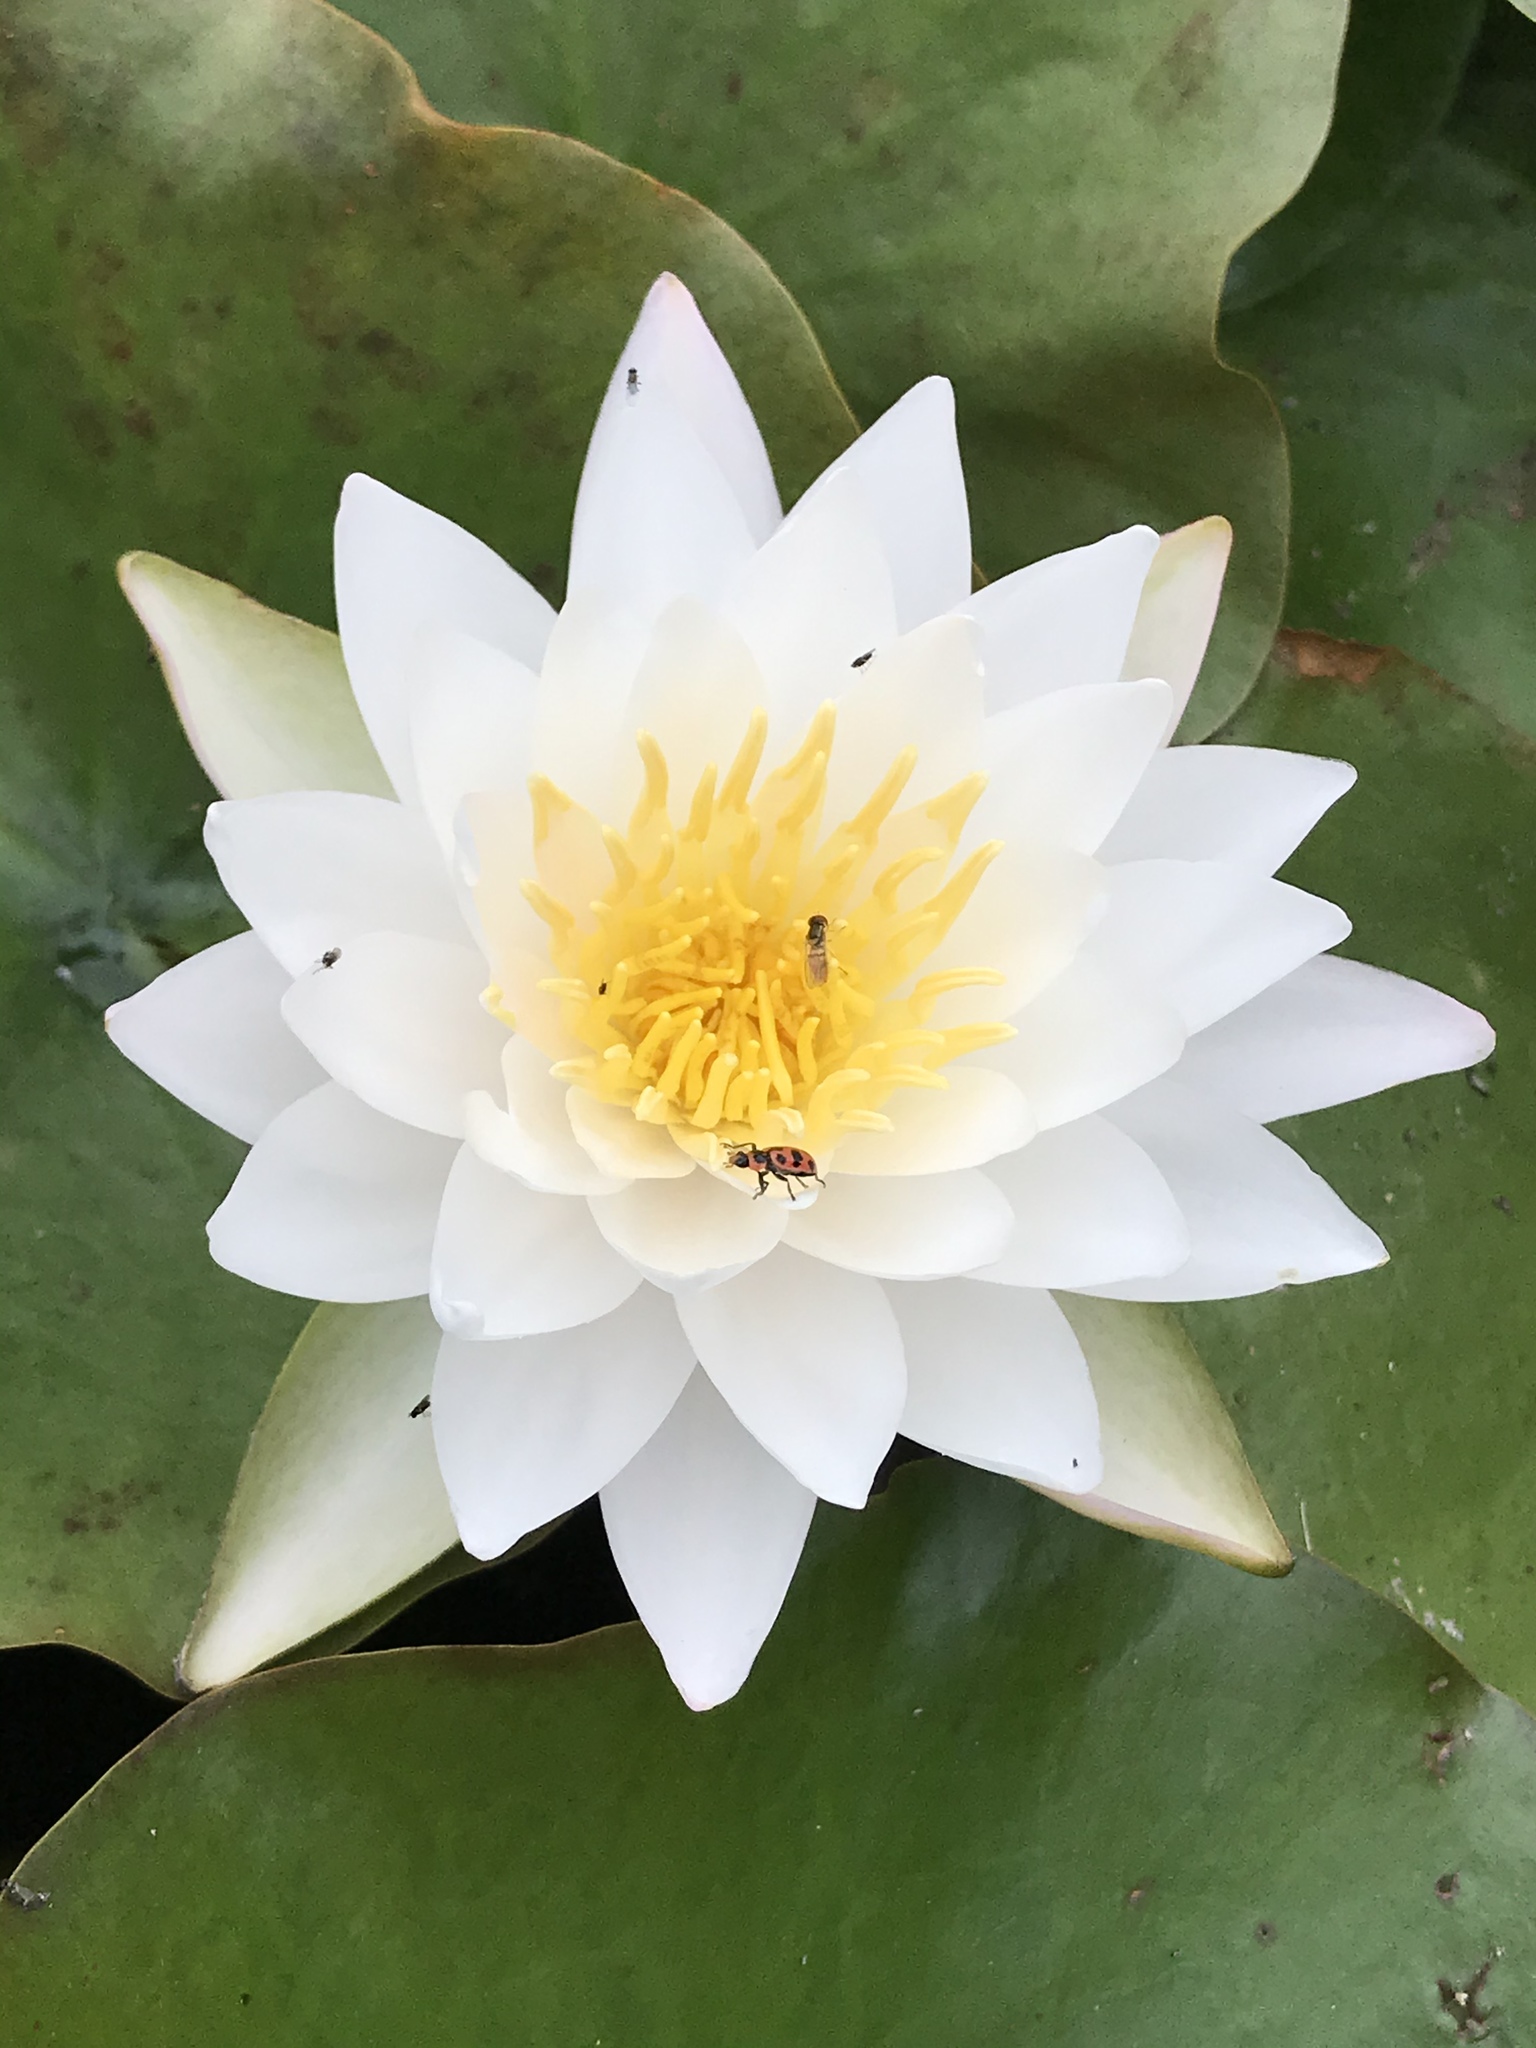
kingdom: Plantae
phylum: Tracheophyta
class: Magnoliopsida
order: Nymphaeales
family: Nymphaeaceae
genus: Nymphaea
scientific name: Nymphaea odorata
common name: Fragrant water-lily
